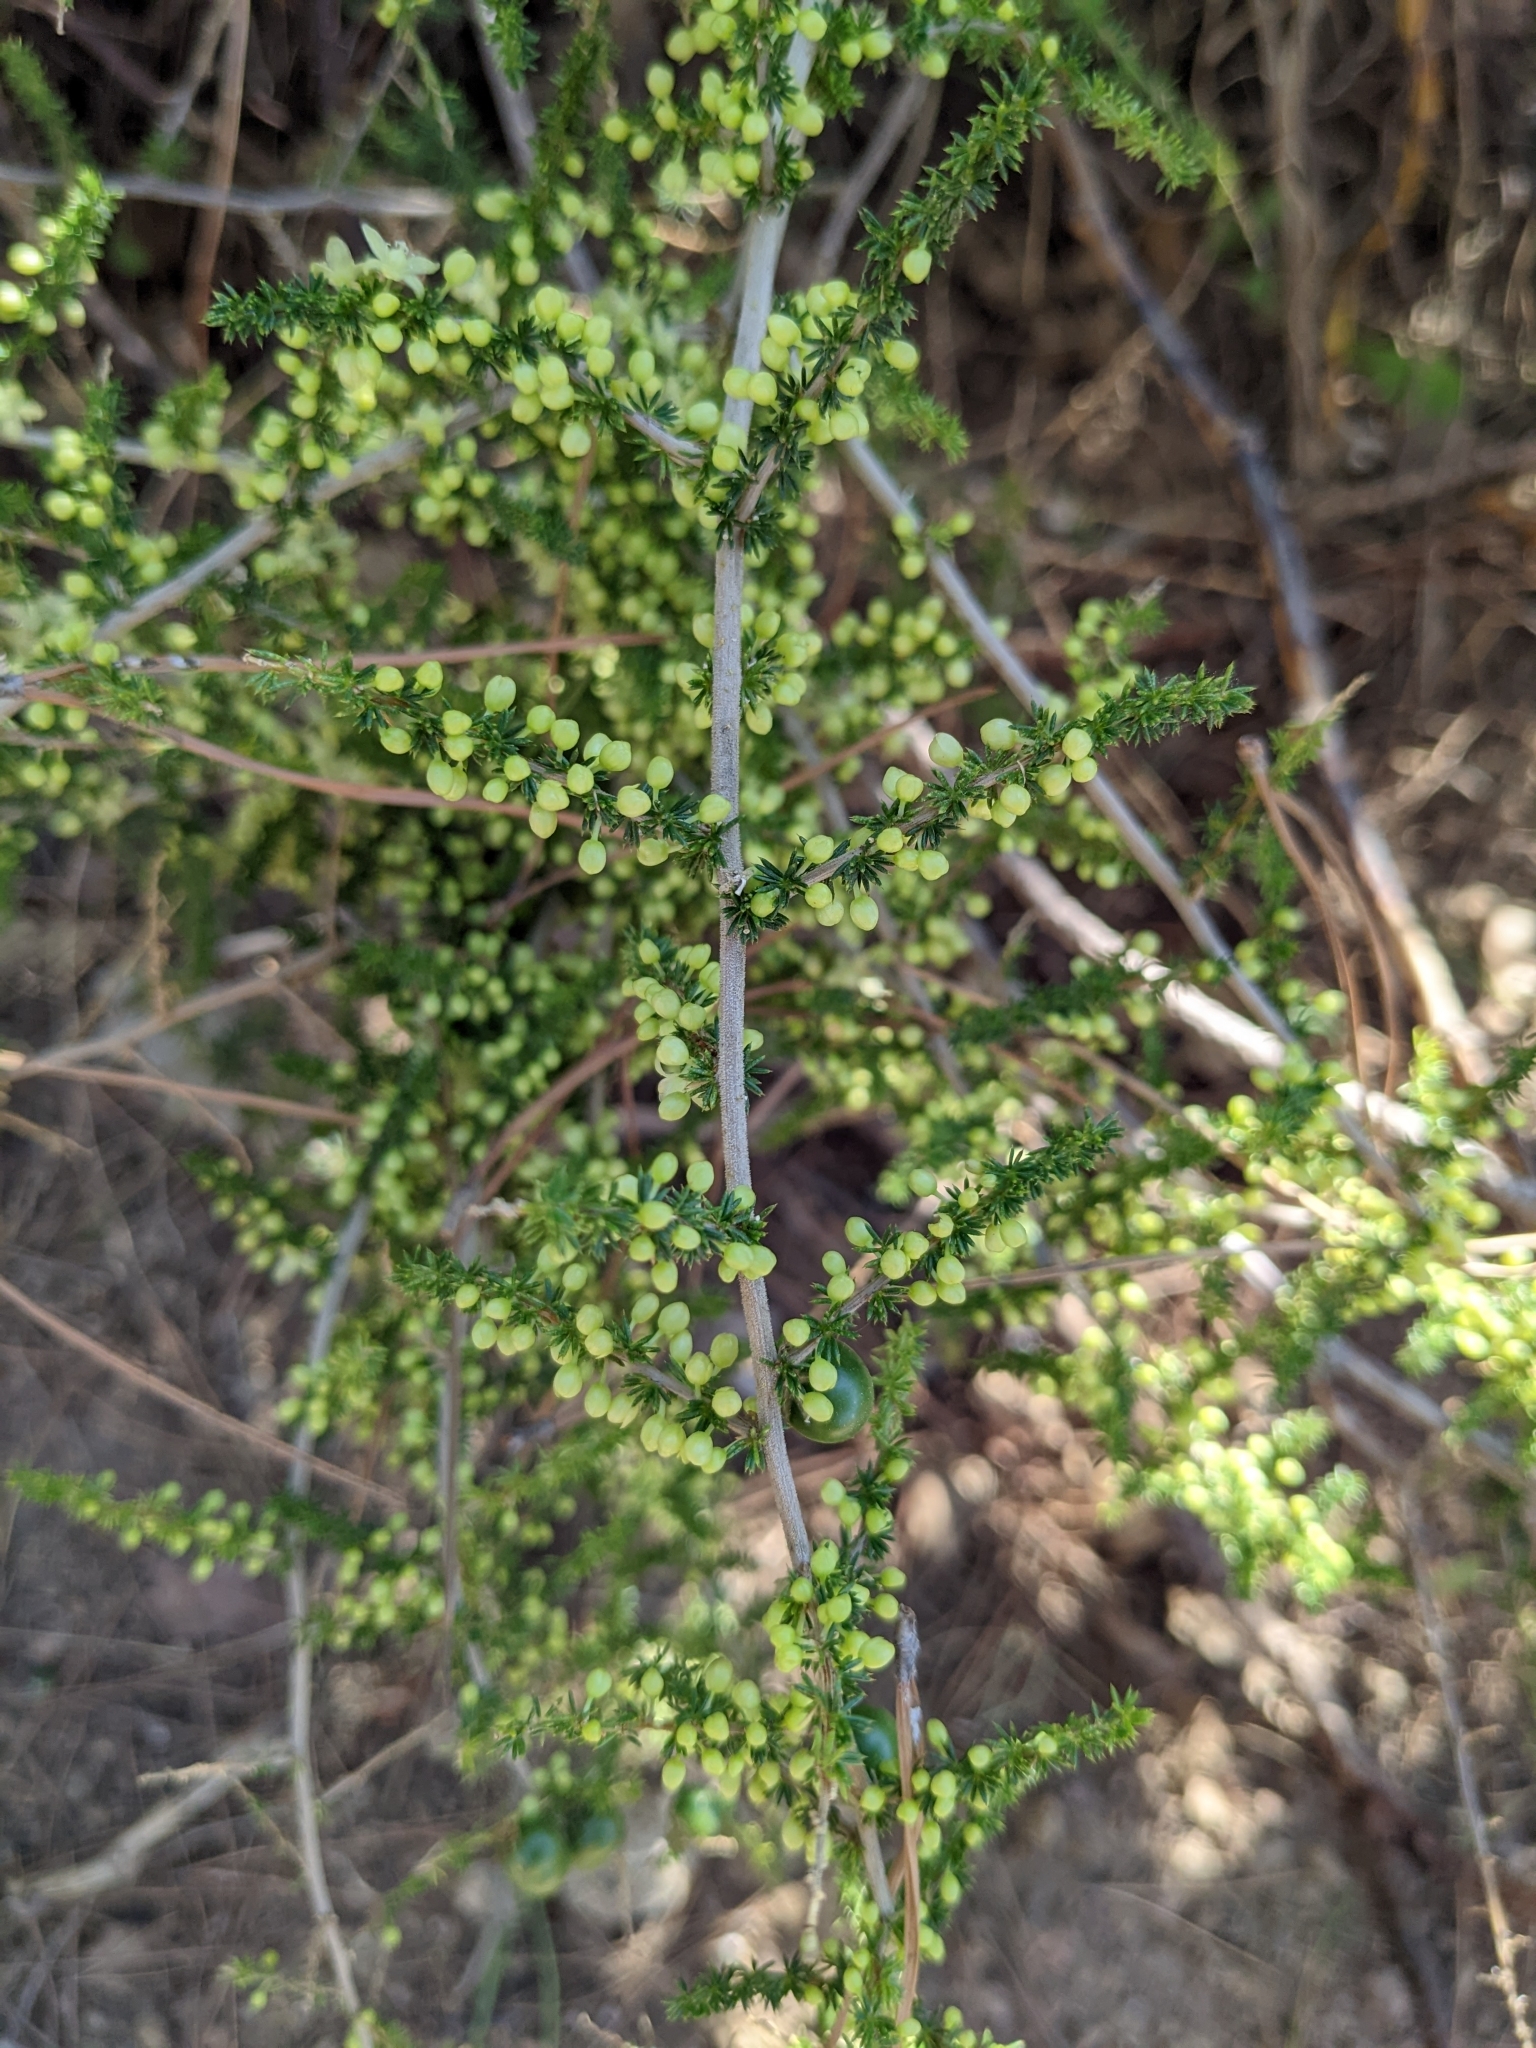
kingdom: Plantae
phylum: Tracheophyta
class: Liliopsida
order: Asparagales
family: Asparagaceae
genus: Asparagus
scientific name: Asparagus acutifolius
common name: Wild asparagus
